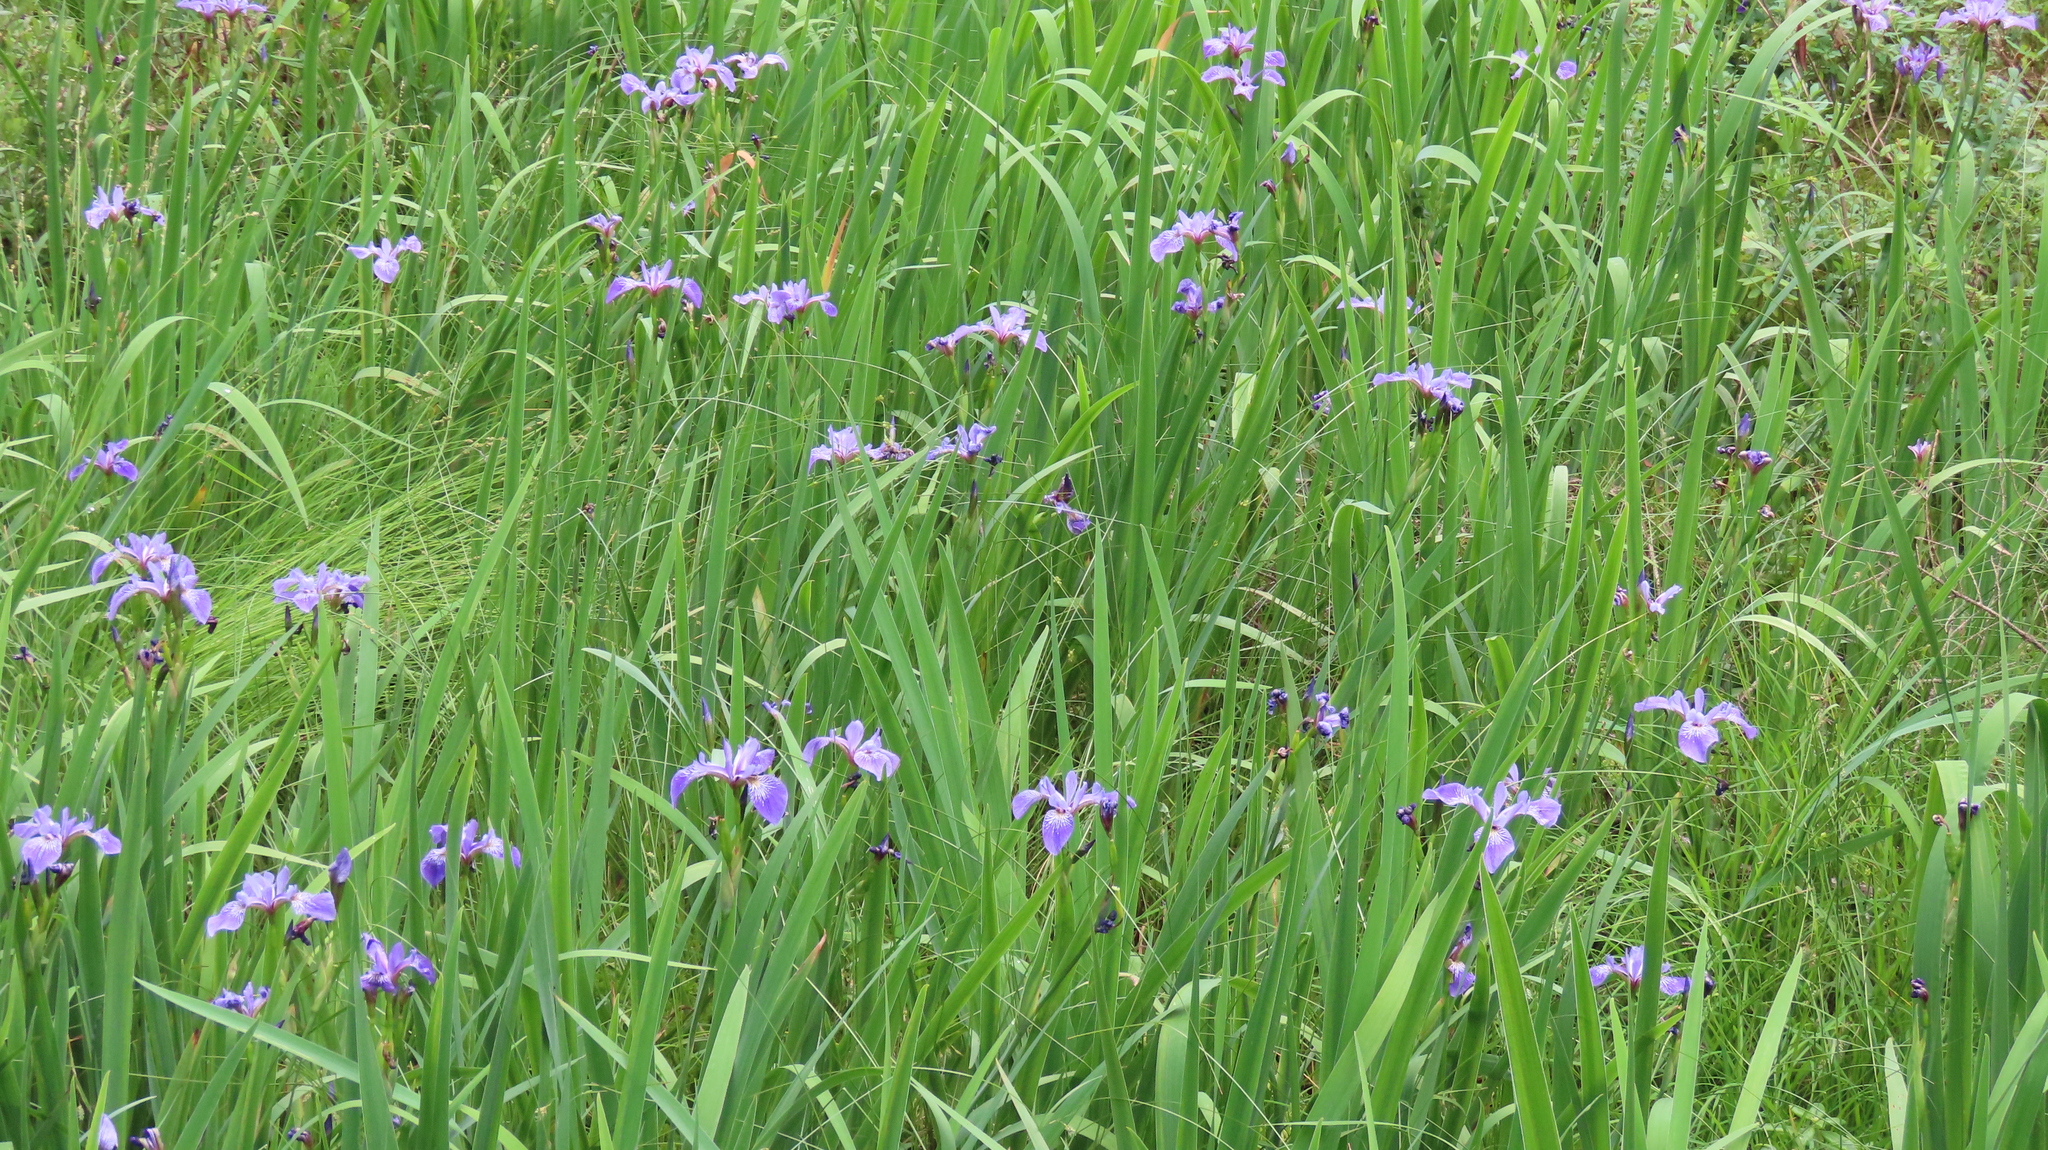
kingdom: Plantae
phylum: Tracheophyta
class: Liliopsida
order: Asparagales
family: Iridaceae
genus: Iris
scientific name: Iris versicolor
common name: Purple iris
